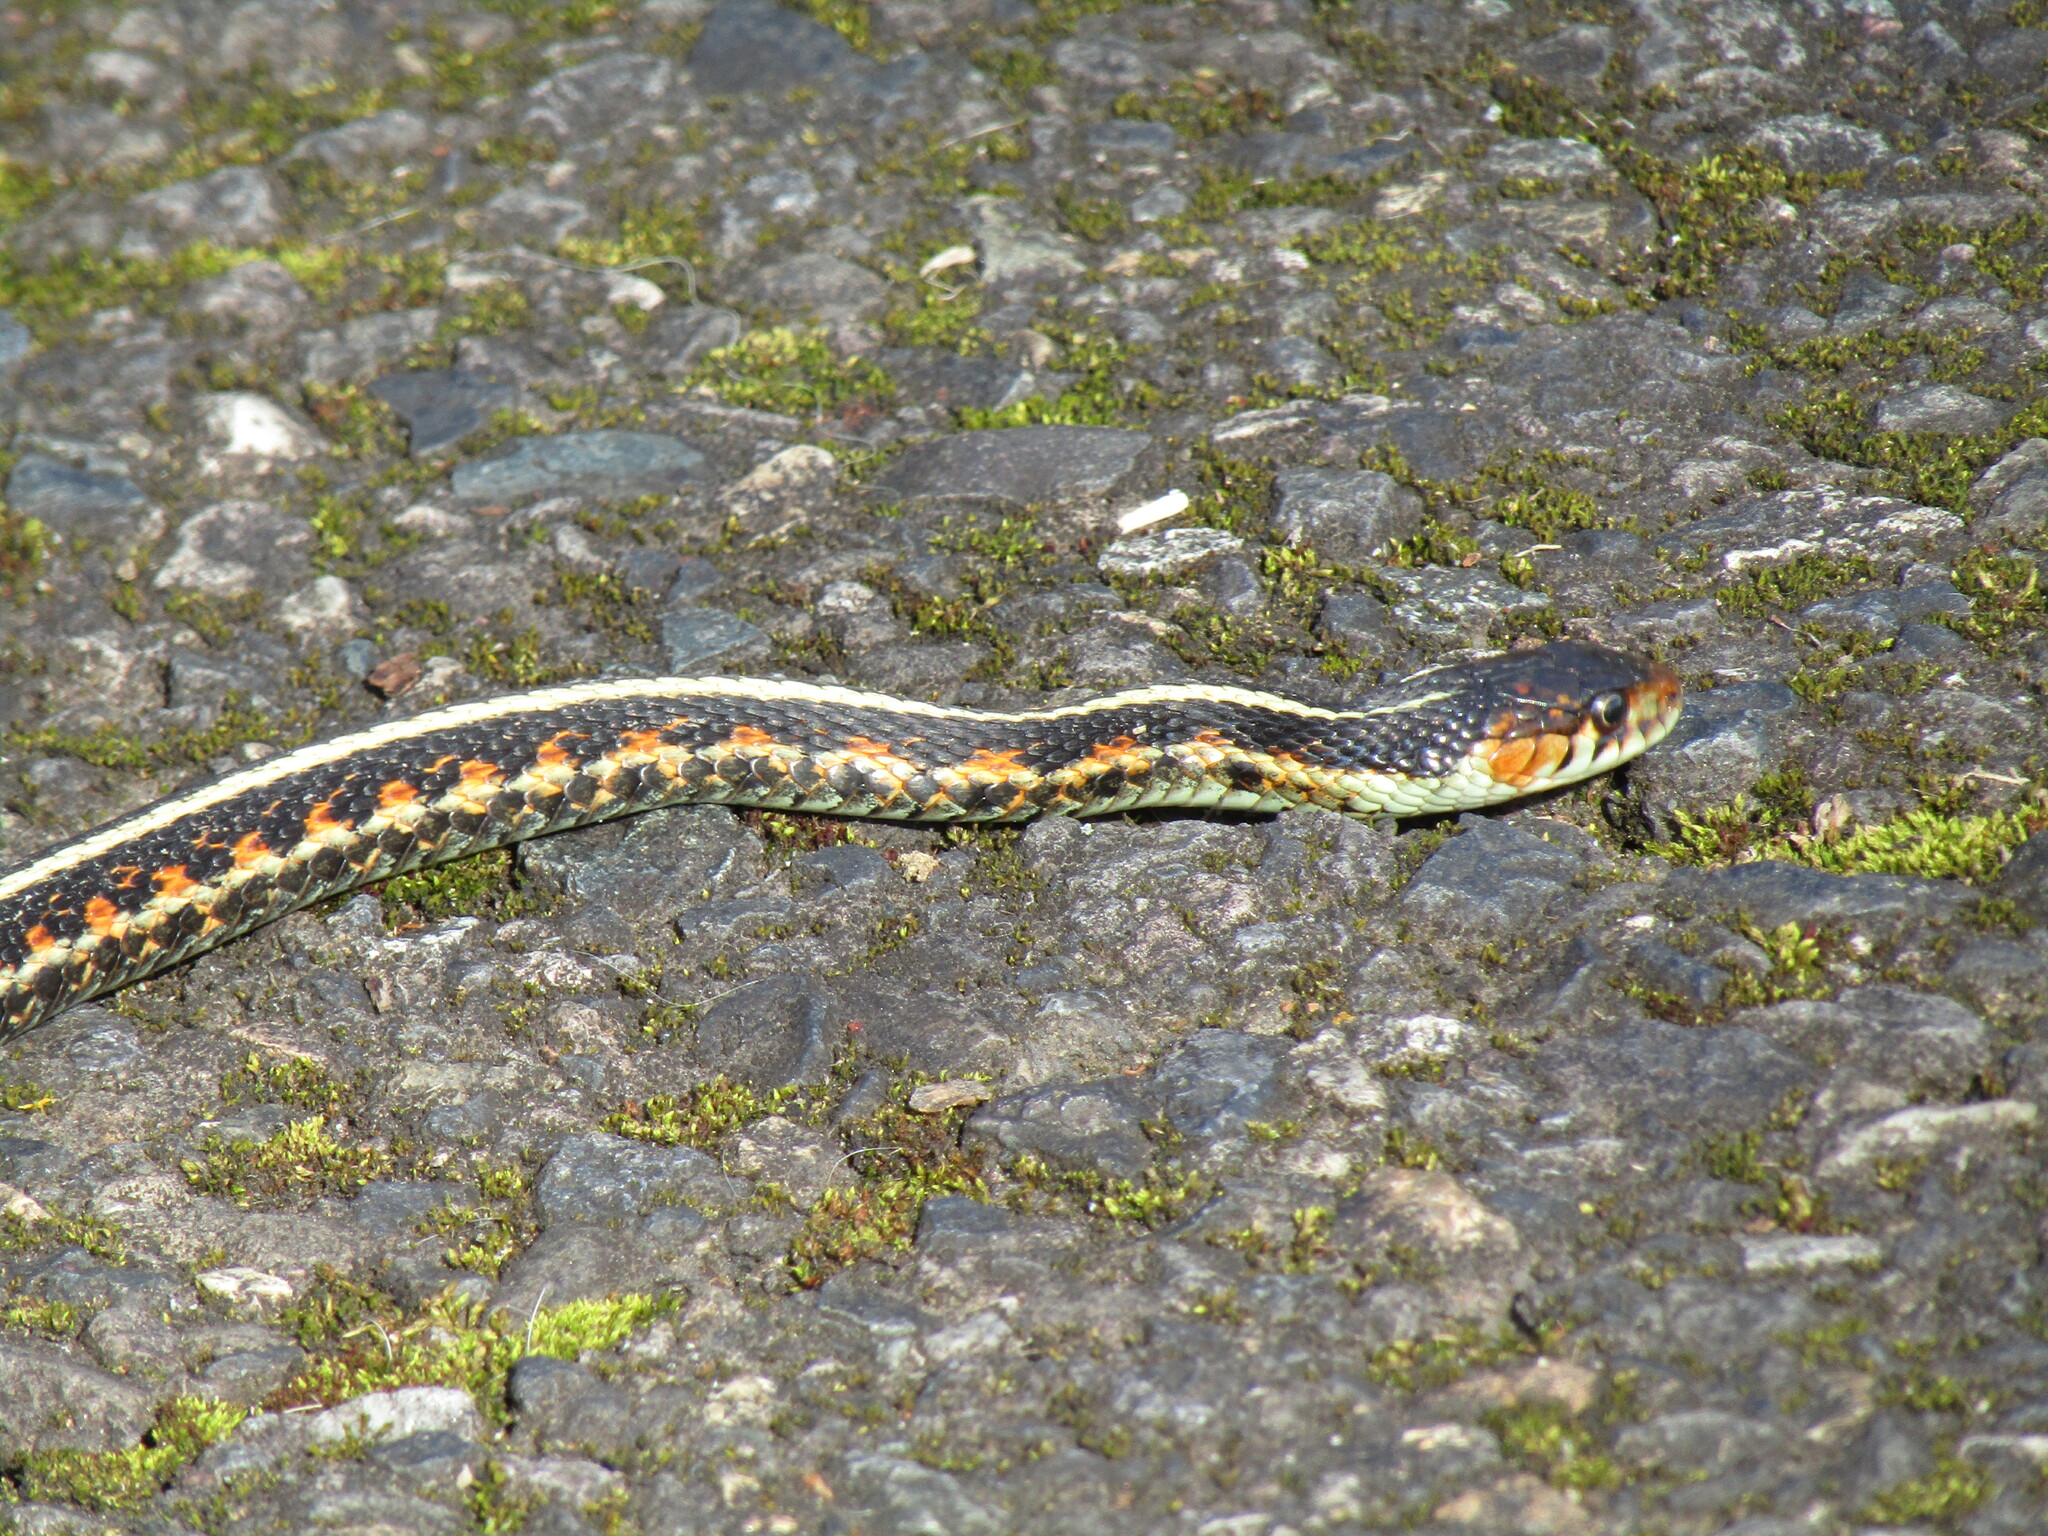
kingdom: Animalia
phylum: Chordata
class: Squamata
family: Colubridae
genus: Thamnophis
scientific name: Thamnophis sirtalis
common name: Common garter snake
